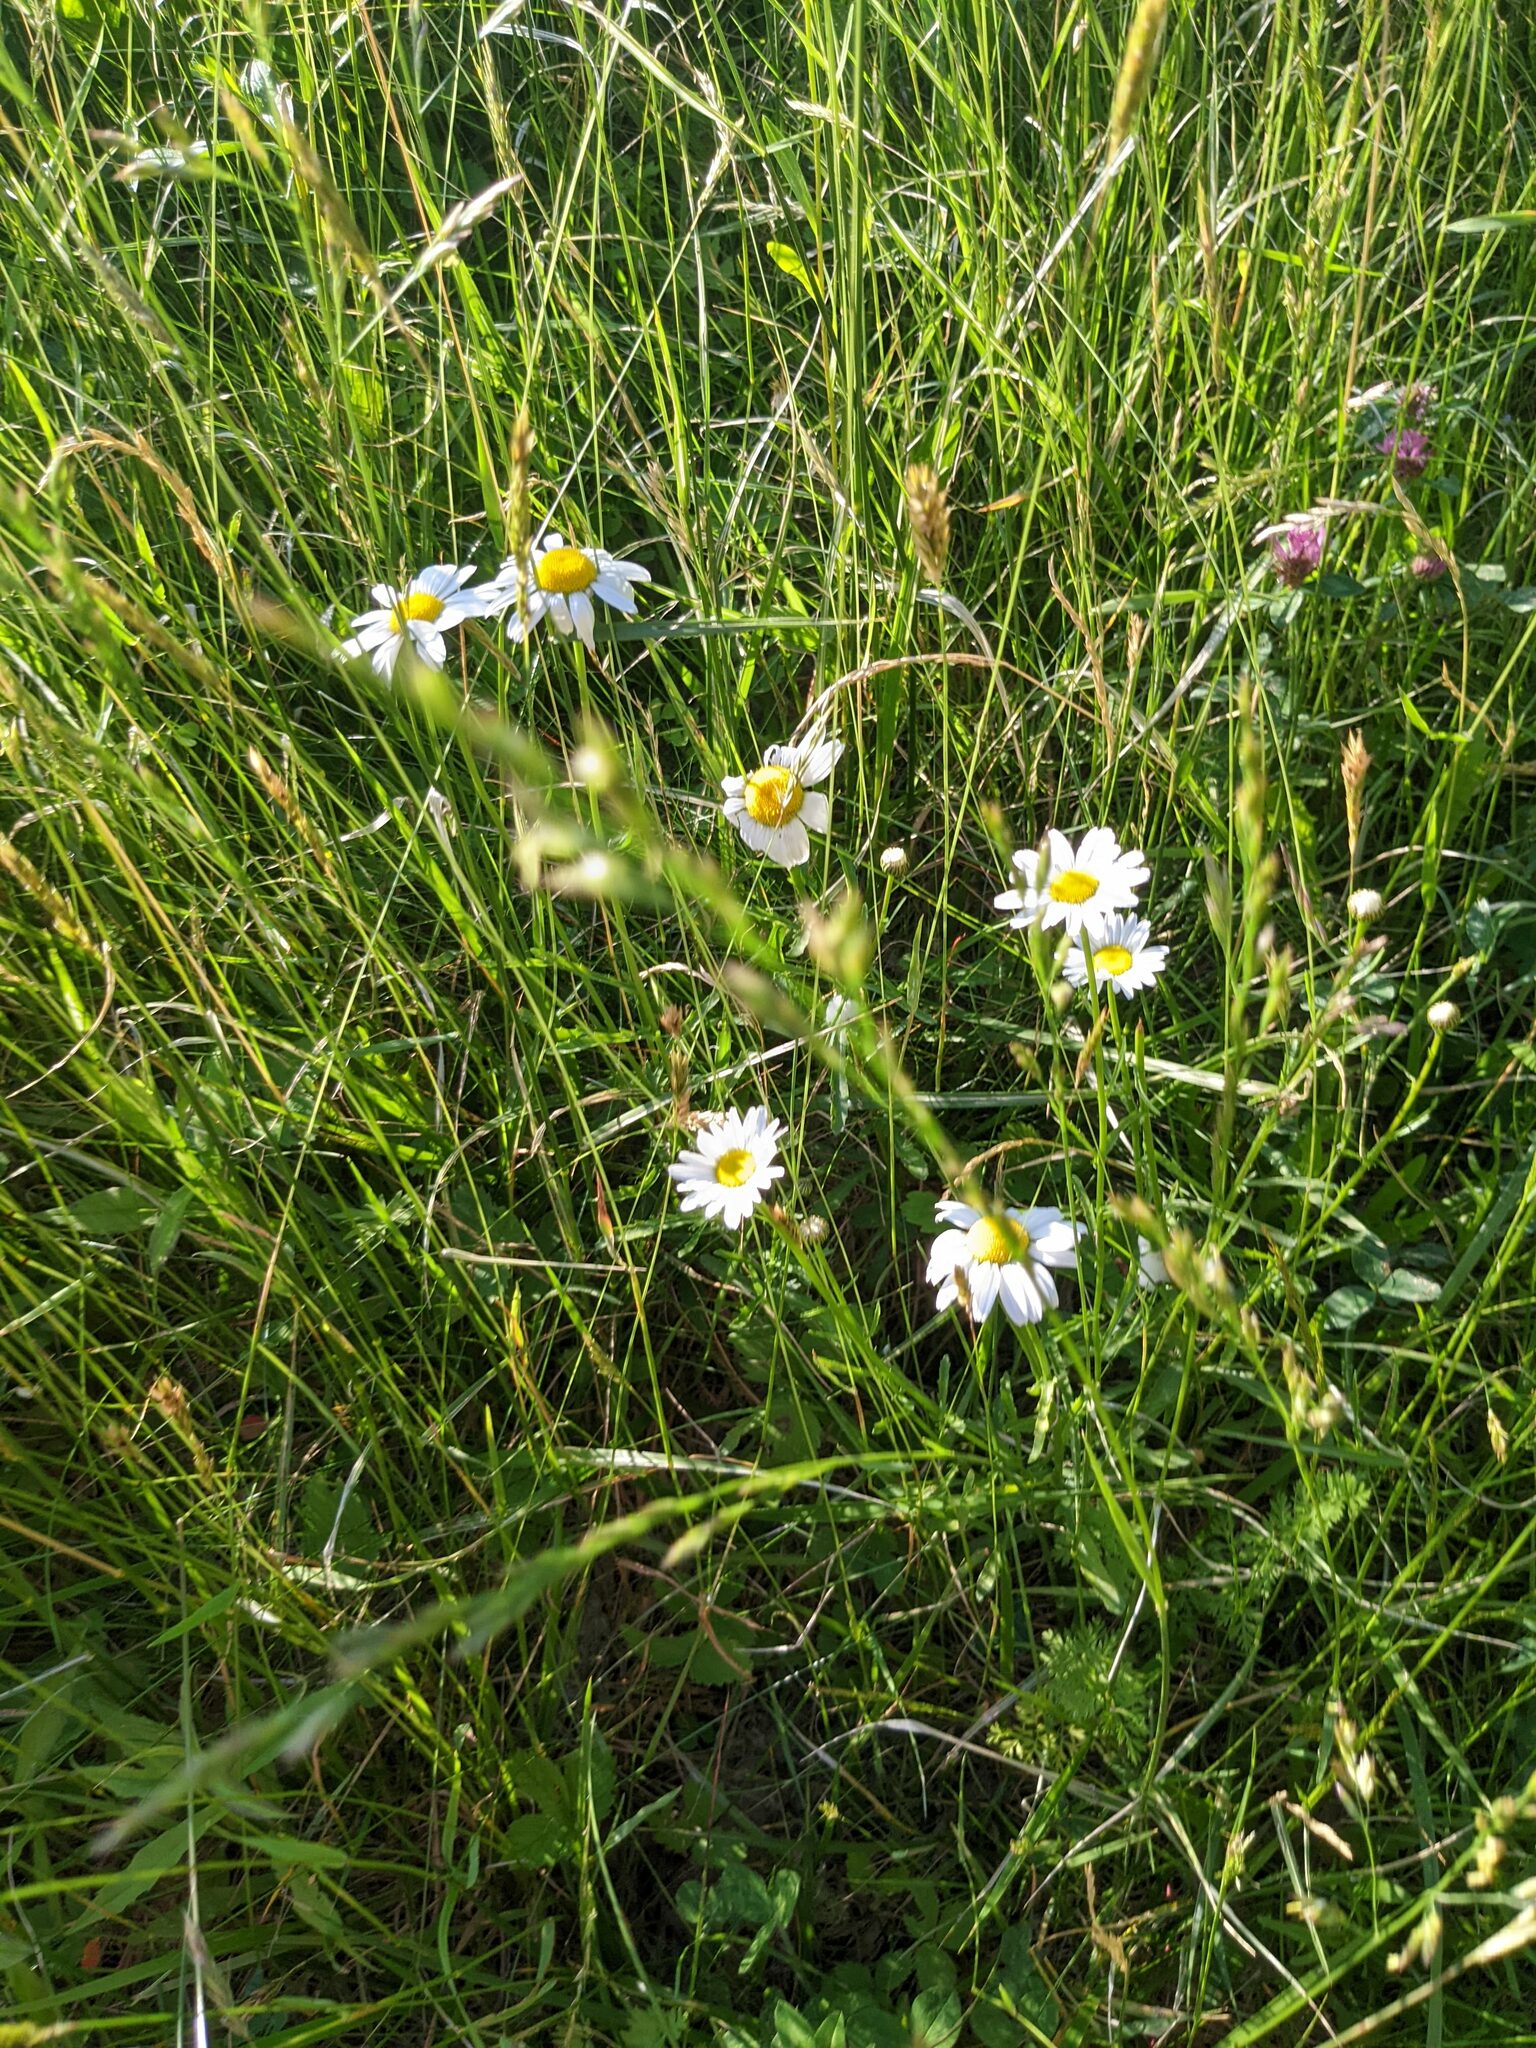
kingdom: Plantae
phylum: Tracheophyta
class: Magnoliopsida
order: Asterales
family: Asteraceae
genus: Leucanthemum
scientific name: Leucanthemum vulgare
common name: Oxeye daisy
